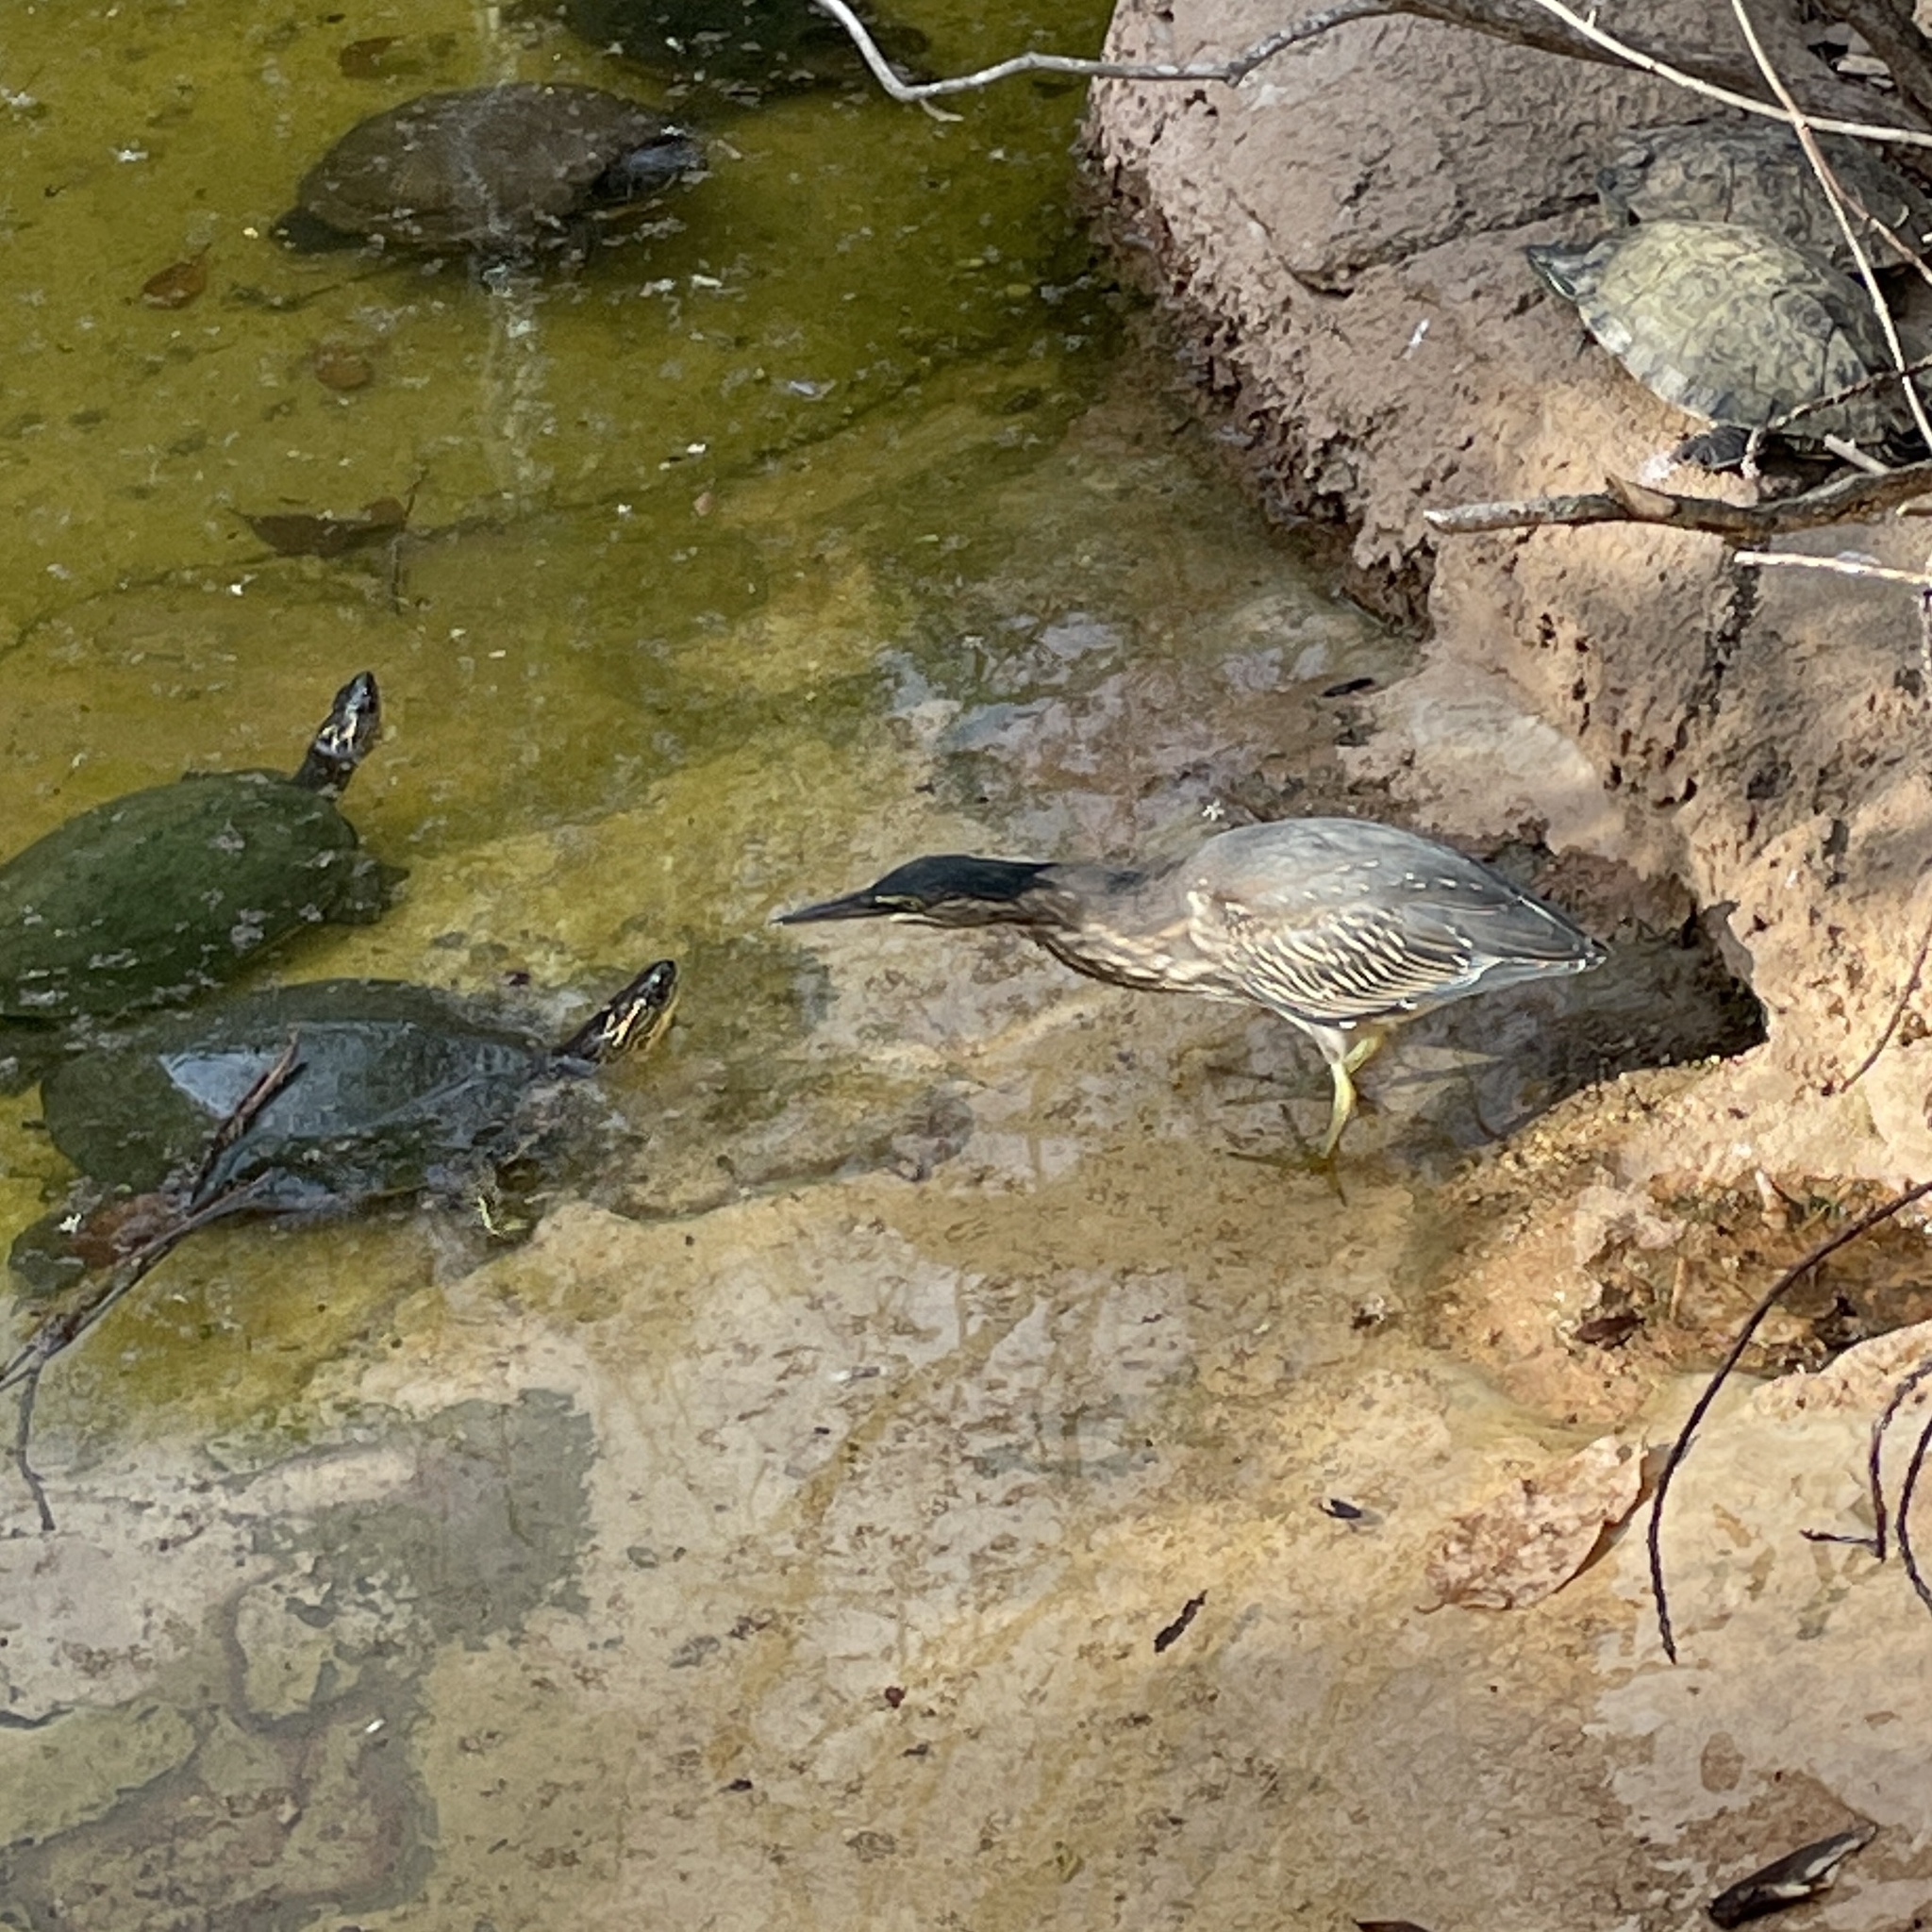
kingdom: Animalia
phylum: Chordata
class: Aves
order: Pelecaniformes
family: Ardeidae
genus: Butorides
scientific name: Butorides striata
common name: Striated heron
